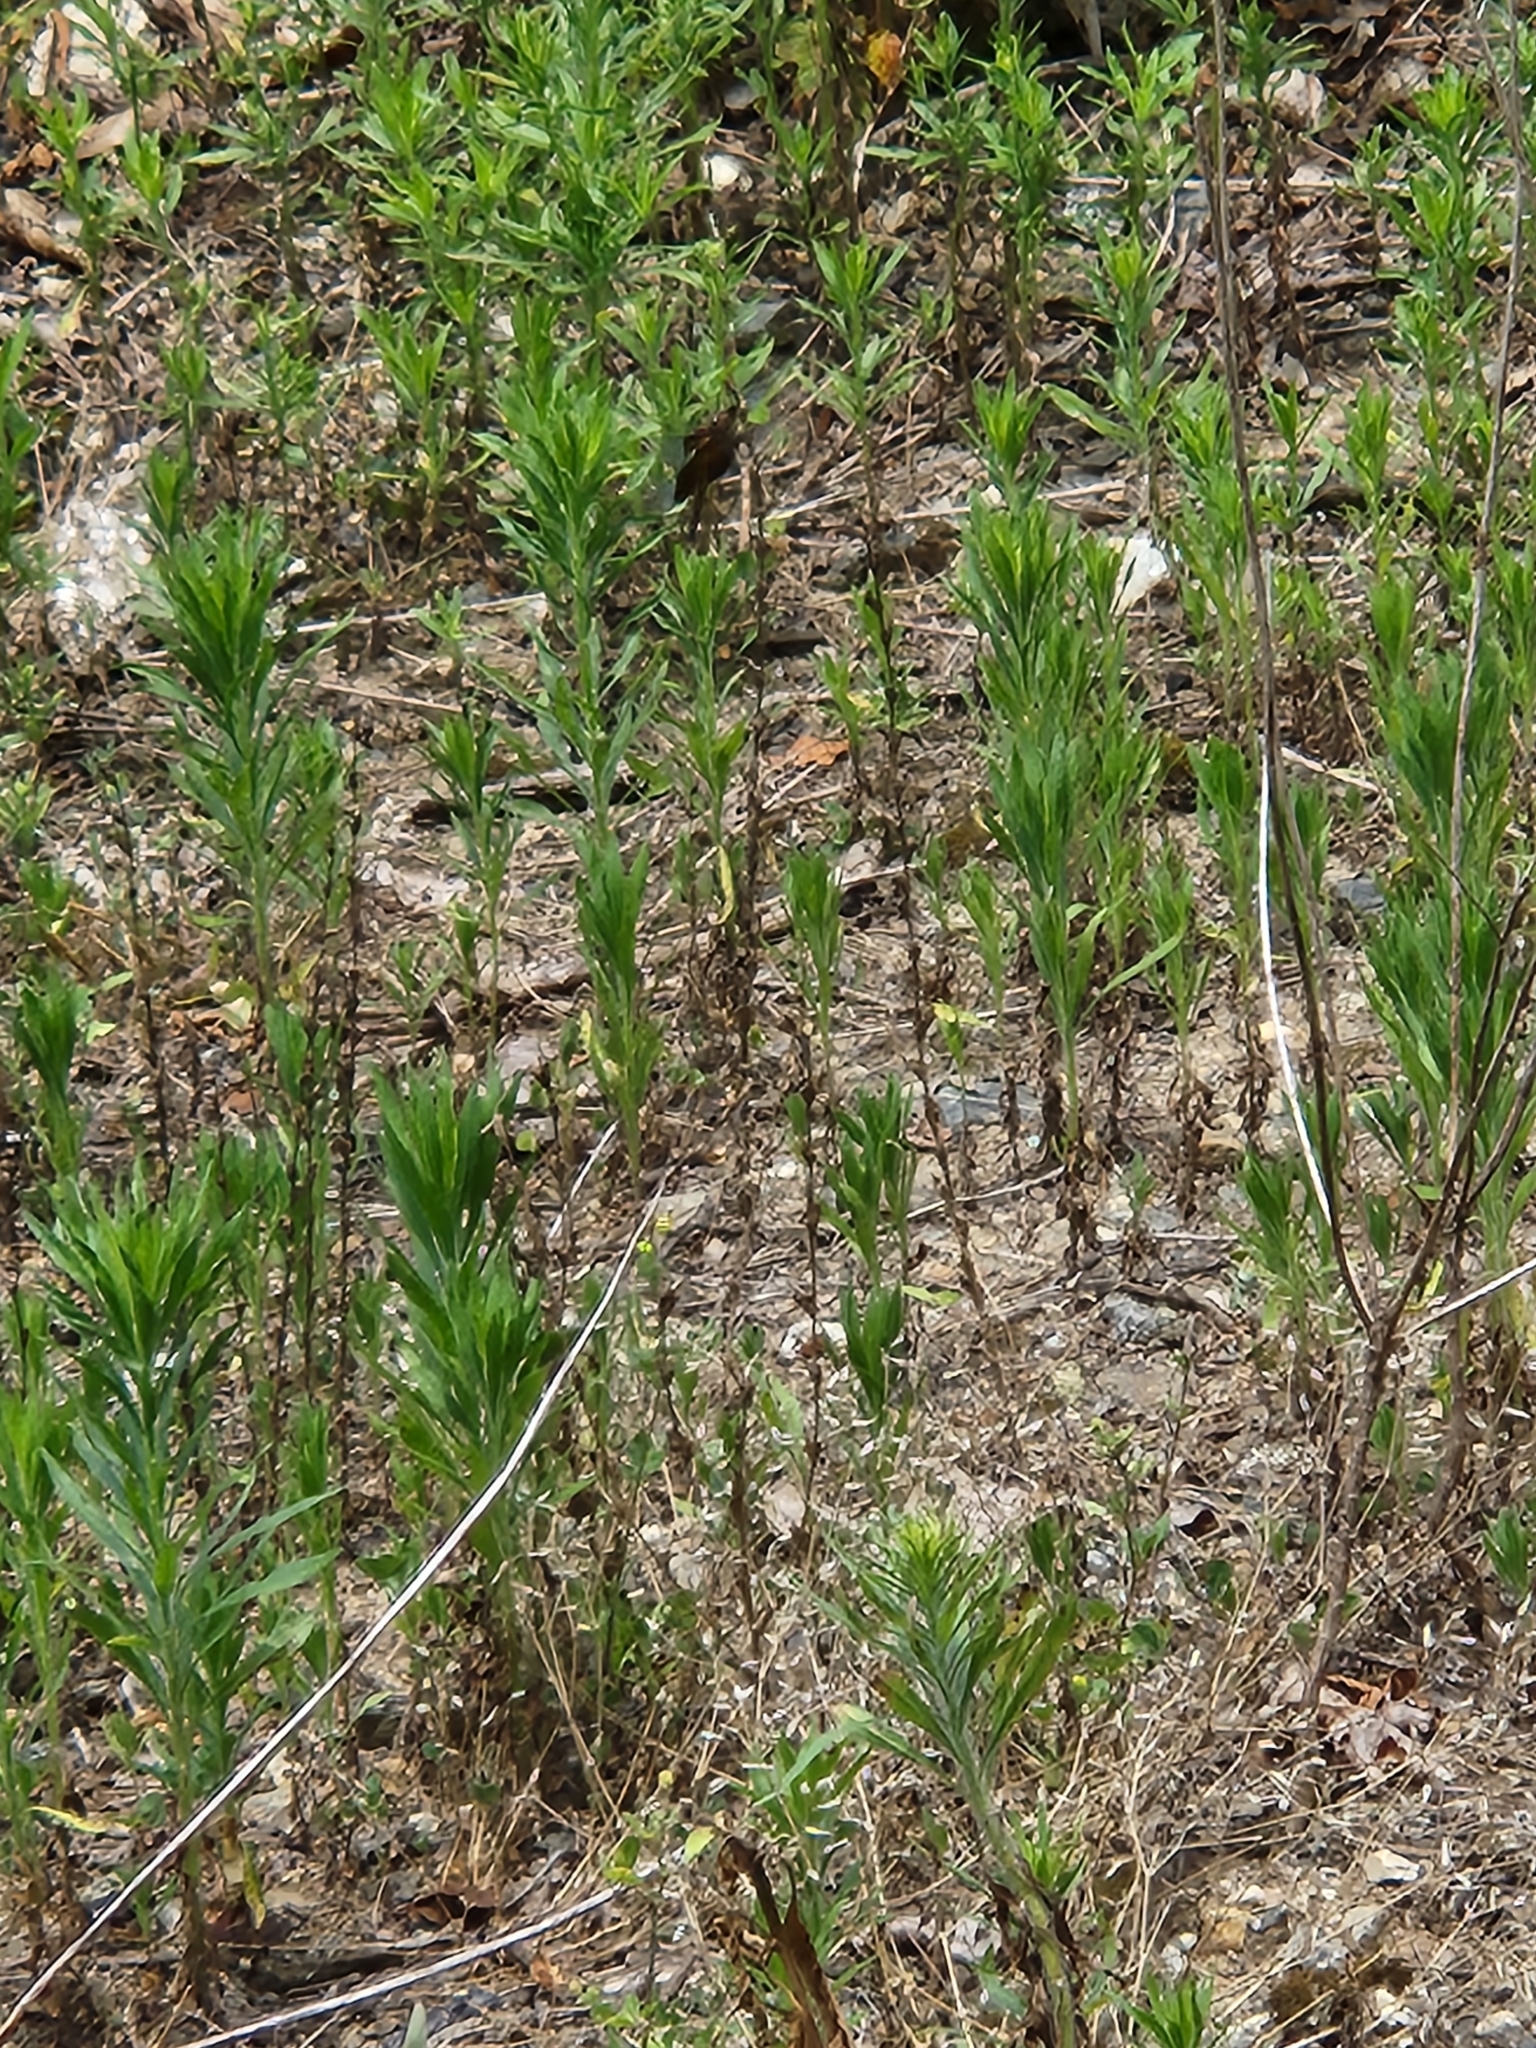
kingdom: Animalia
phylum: Arthropoda
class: Insecta
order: Odonata
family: Libellulidae
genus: Libellula
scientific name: Libellula luctuosa
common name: Widow skimmer
